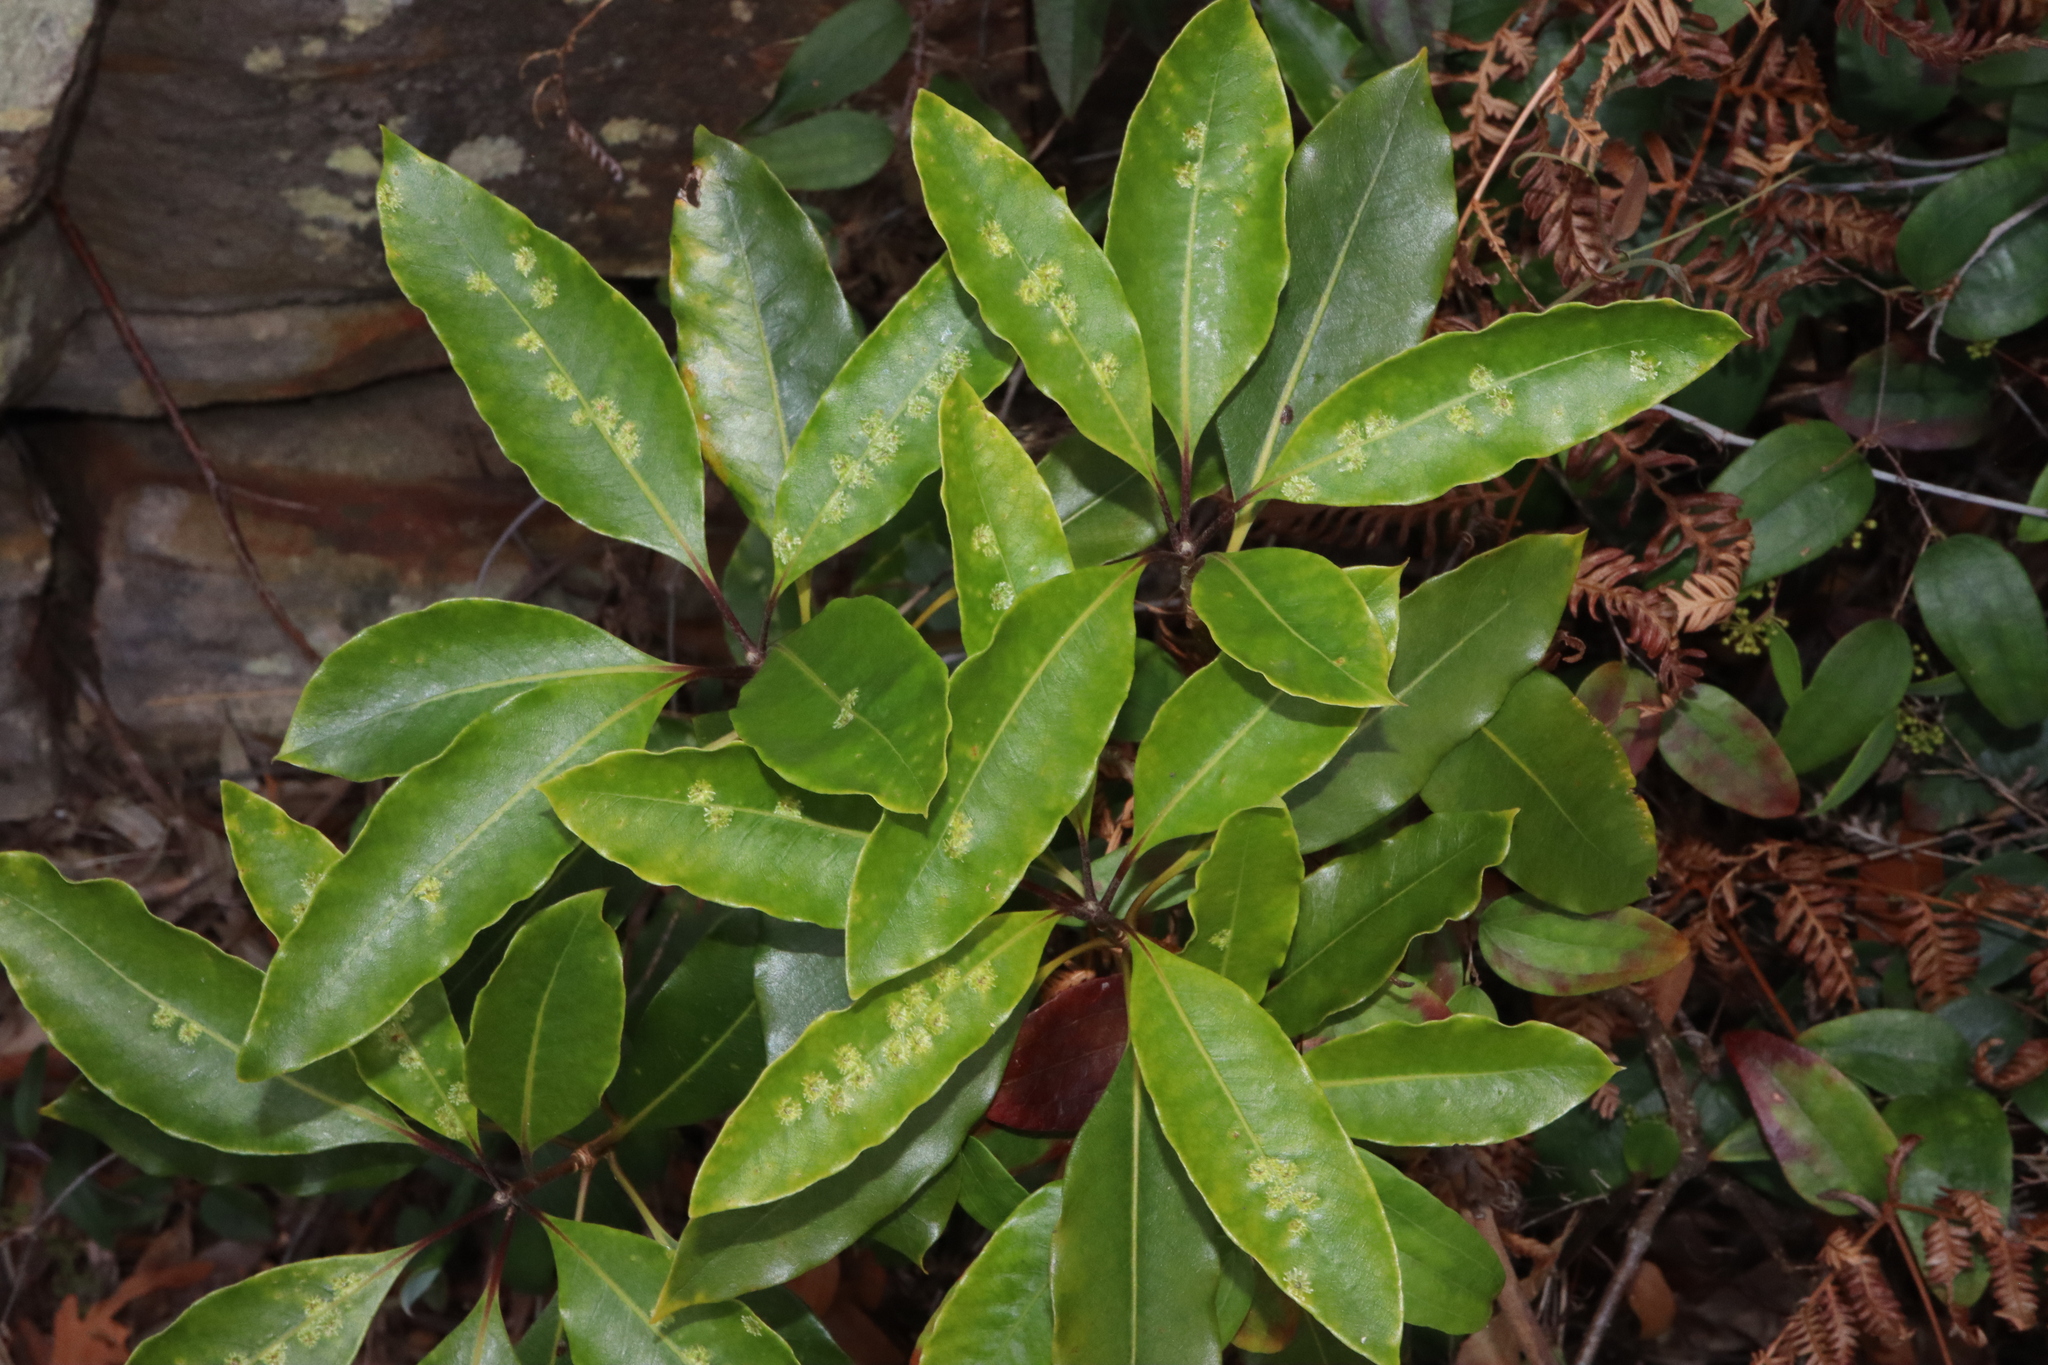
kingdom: Animalia
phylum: Arthropoda
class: Insecta
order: Diptera
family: Agromyzidae
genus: Phytoliriomyza
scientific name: Phytoliriomyza pittosporophylli
